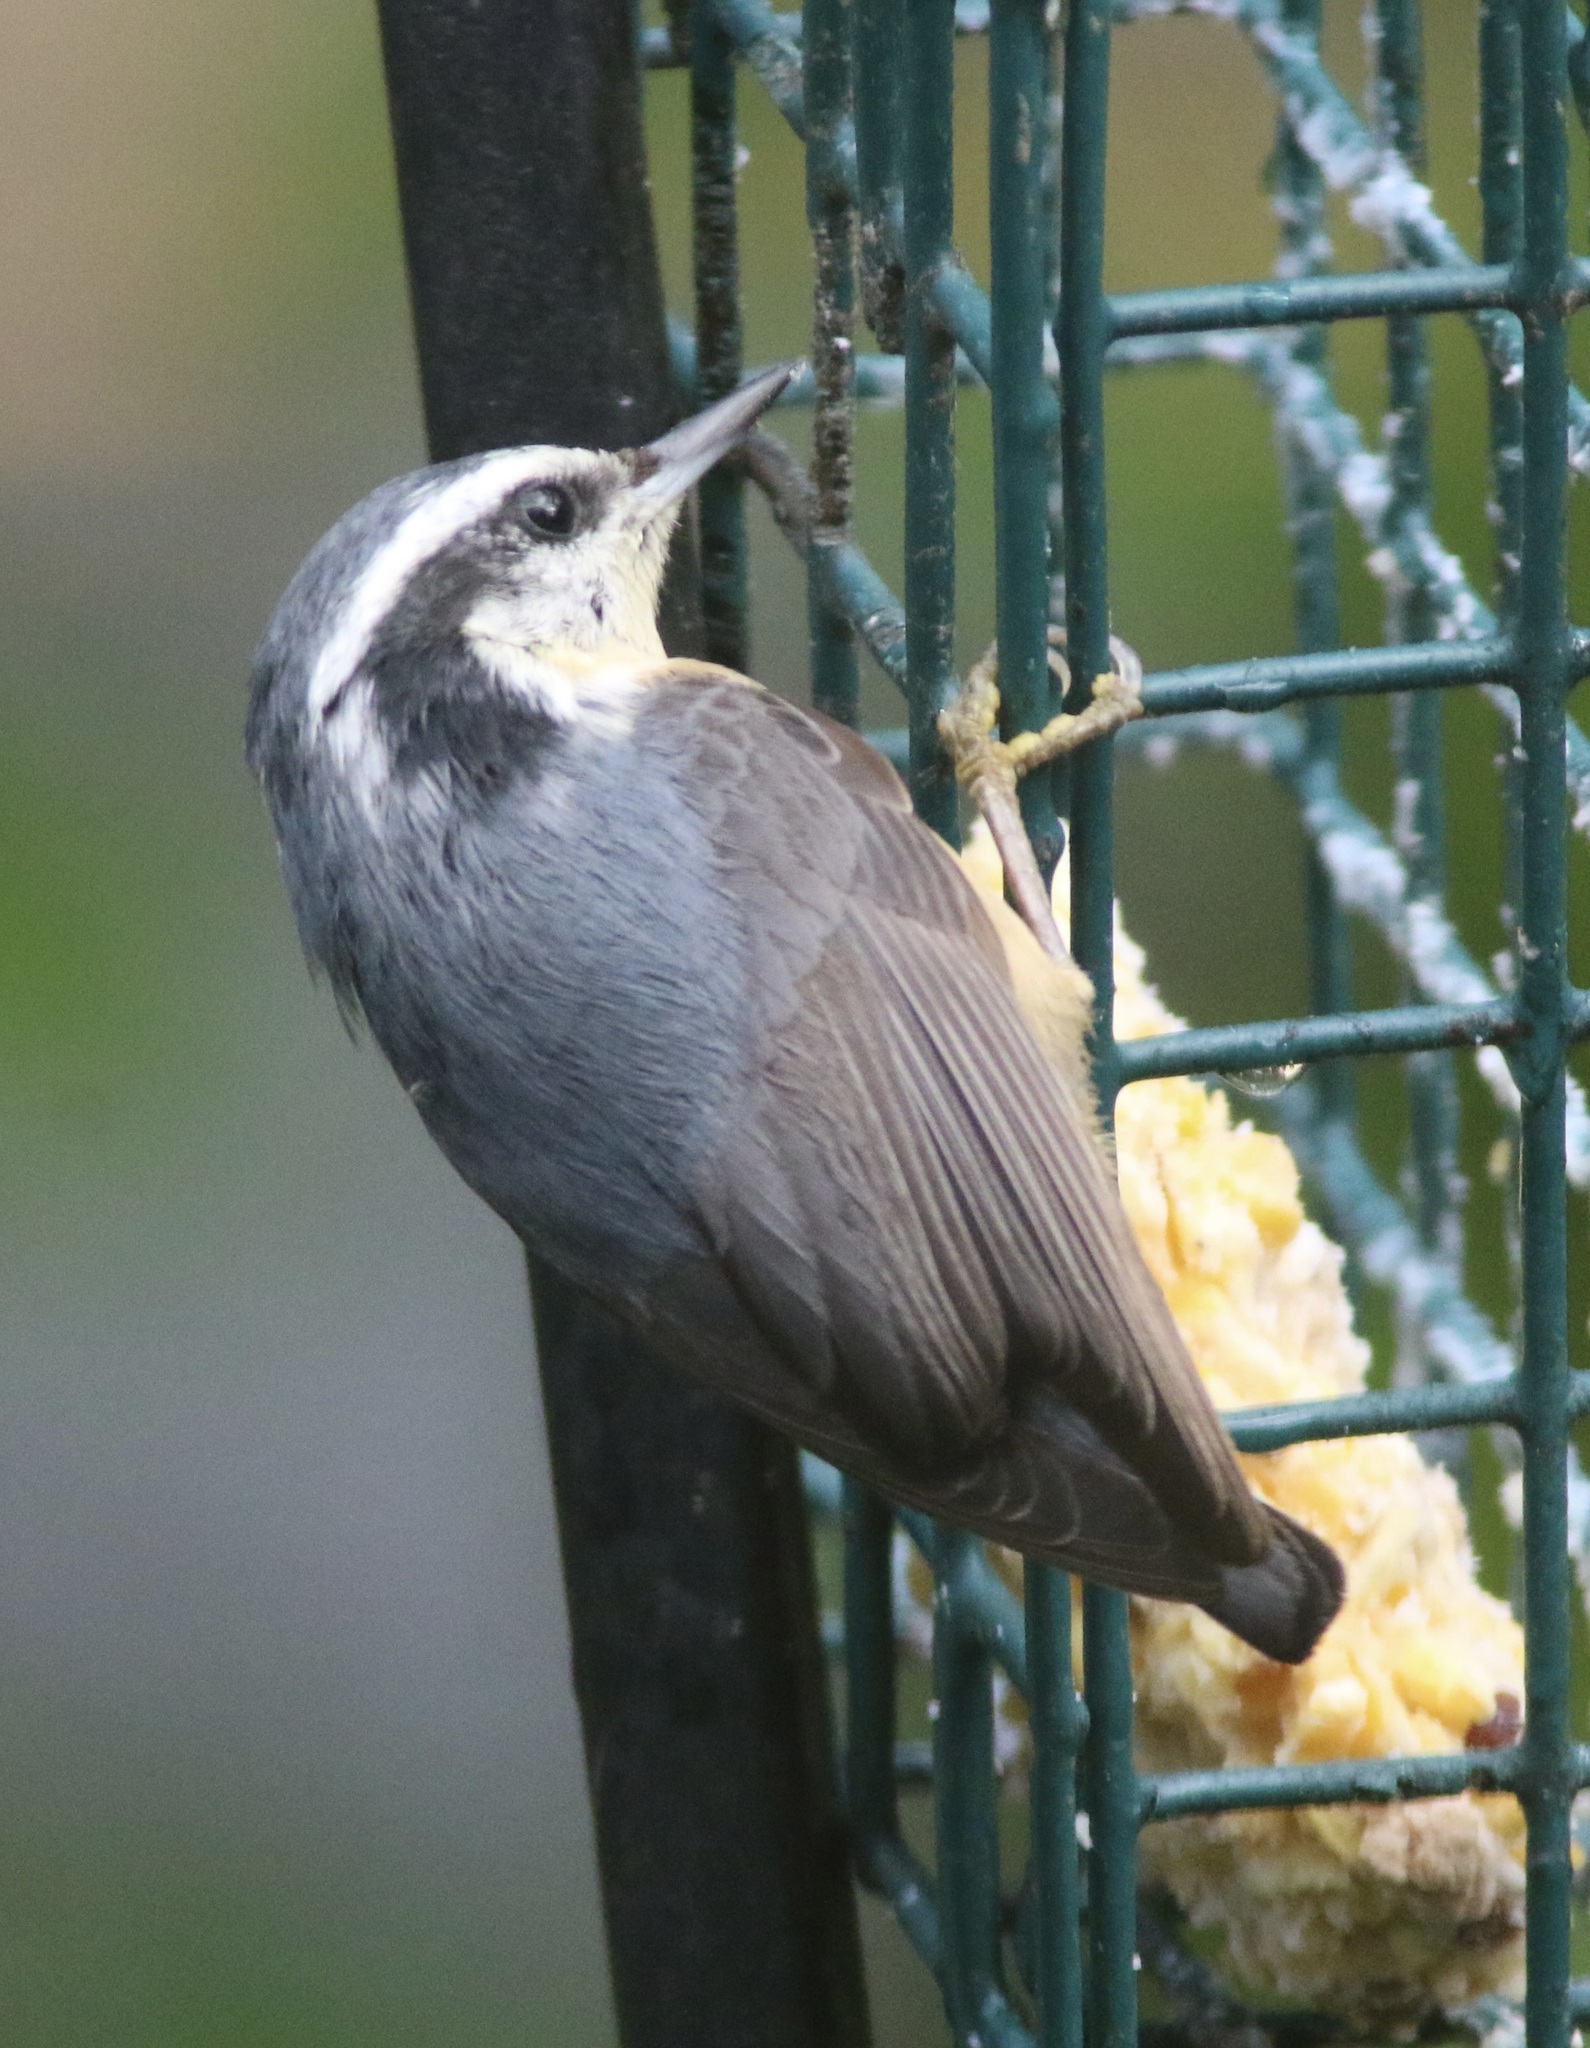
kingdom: Animalia
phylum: Chordata
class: Aves
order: Passeriformes
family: Sittidae
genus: Sitta
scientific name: Sitta canadensis
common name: Red-breasted nuthatch
